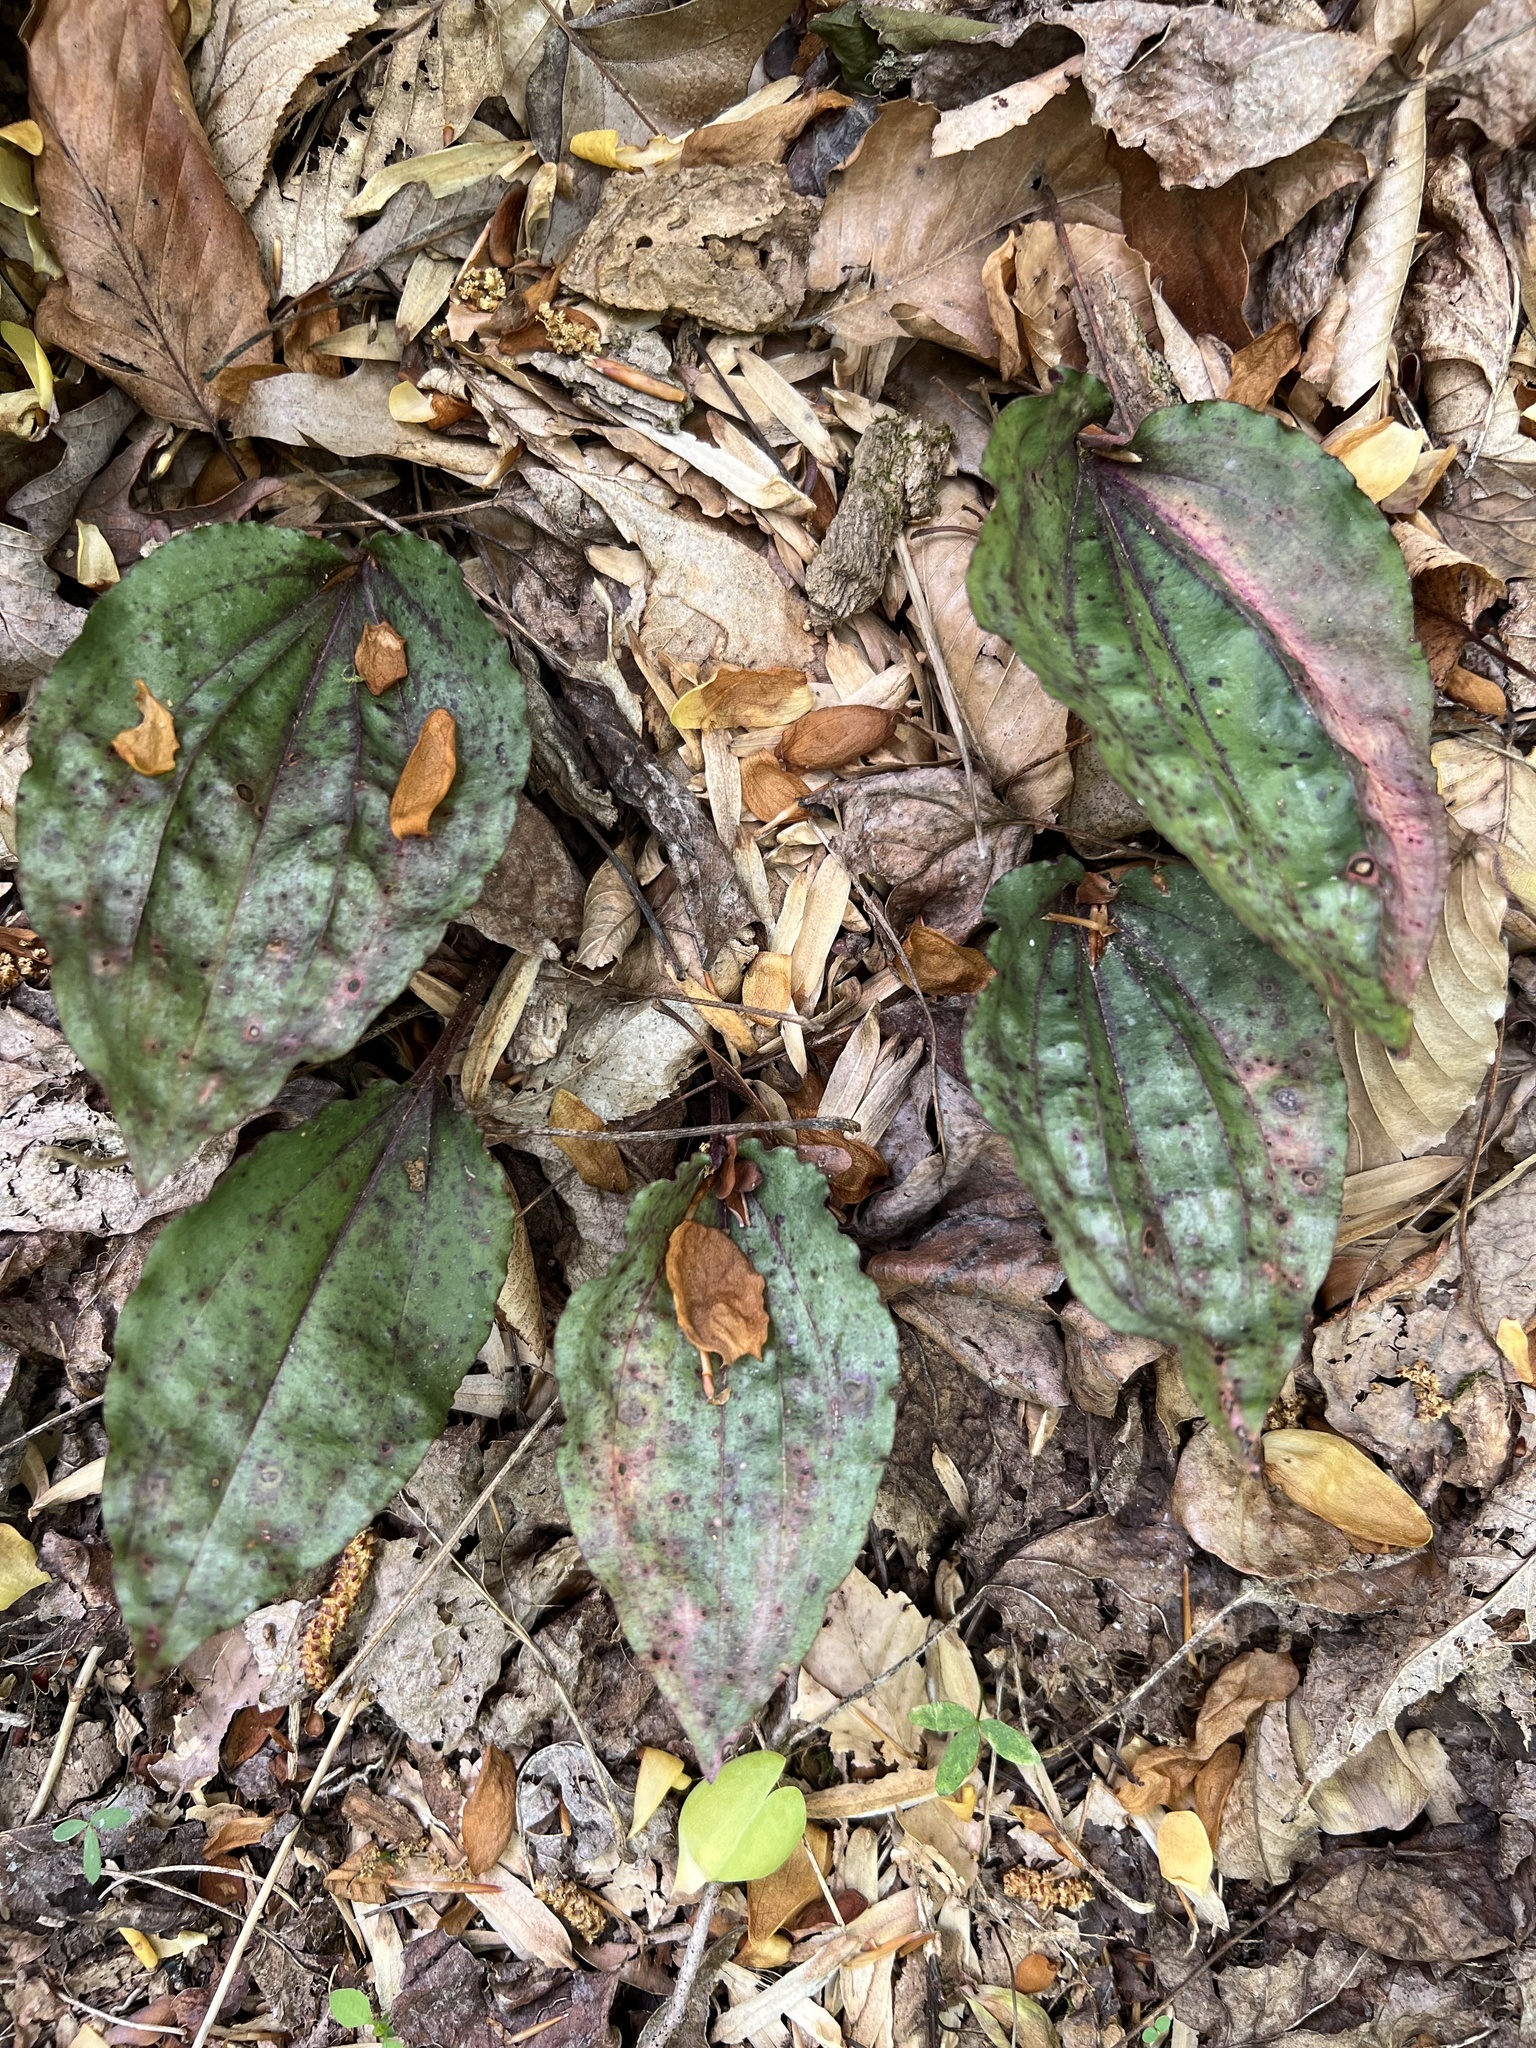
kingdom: Plantae
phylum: Tracheophyta
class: Liliopsida
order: Asparagales
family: Orchidaceae
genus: Tipularia
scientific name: Tipularia discolor
